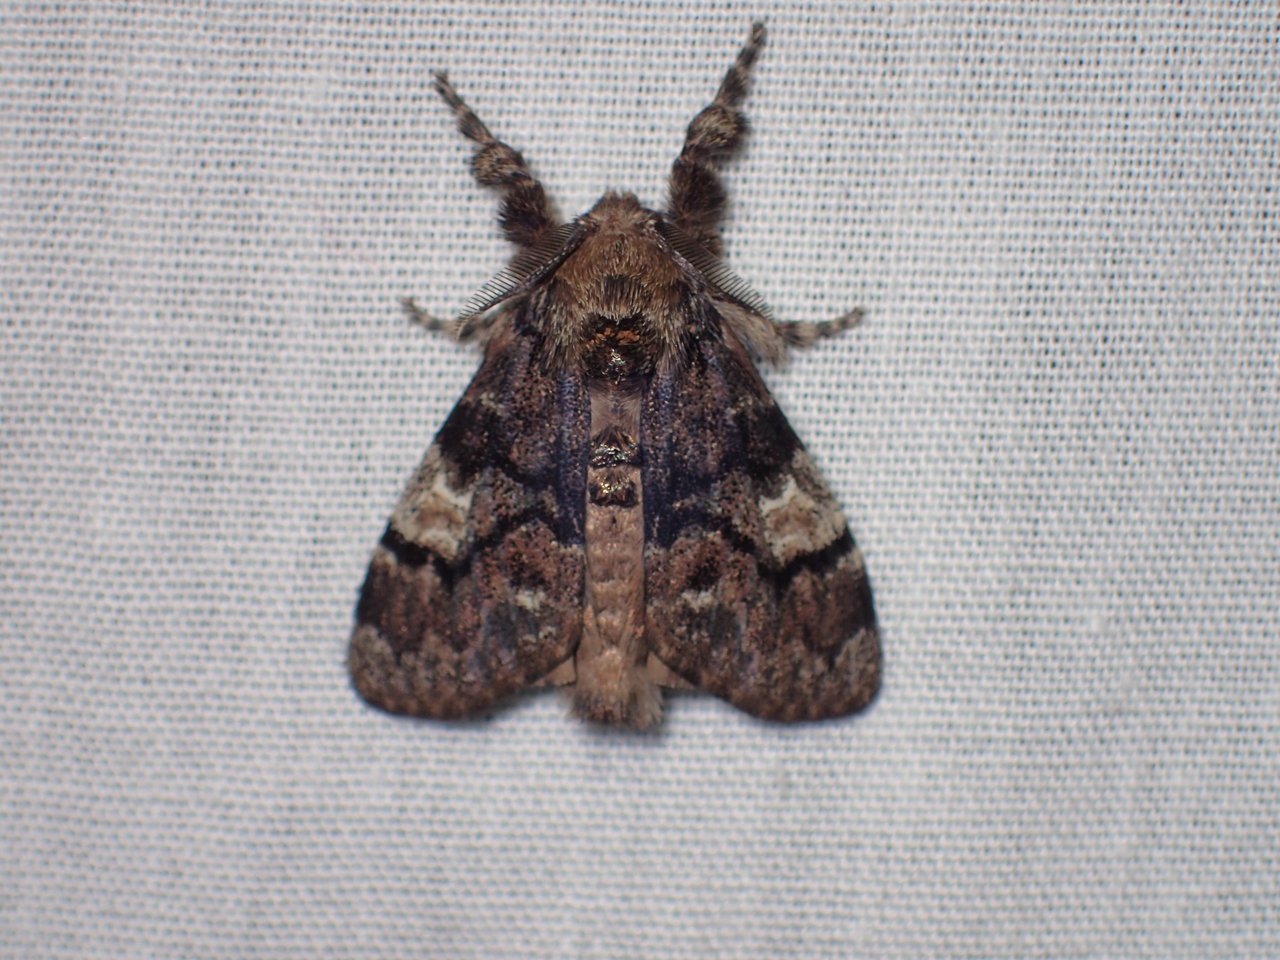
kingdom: Animalia
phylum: Arthropoda
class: Insecta
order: Lepidoptera
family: Erebidae
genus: Dasychira
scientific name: Dasychira manto
